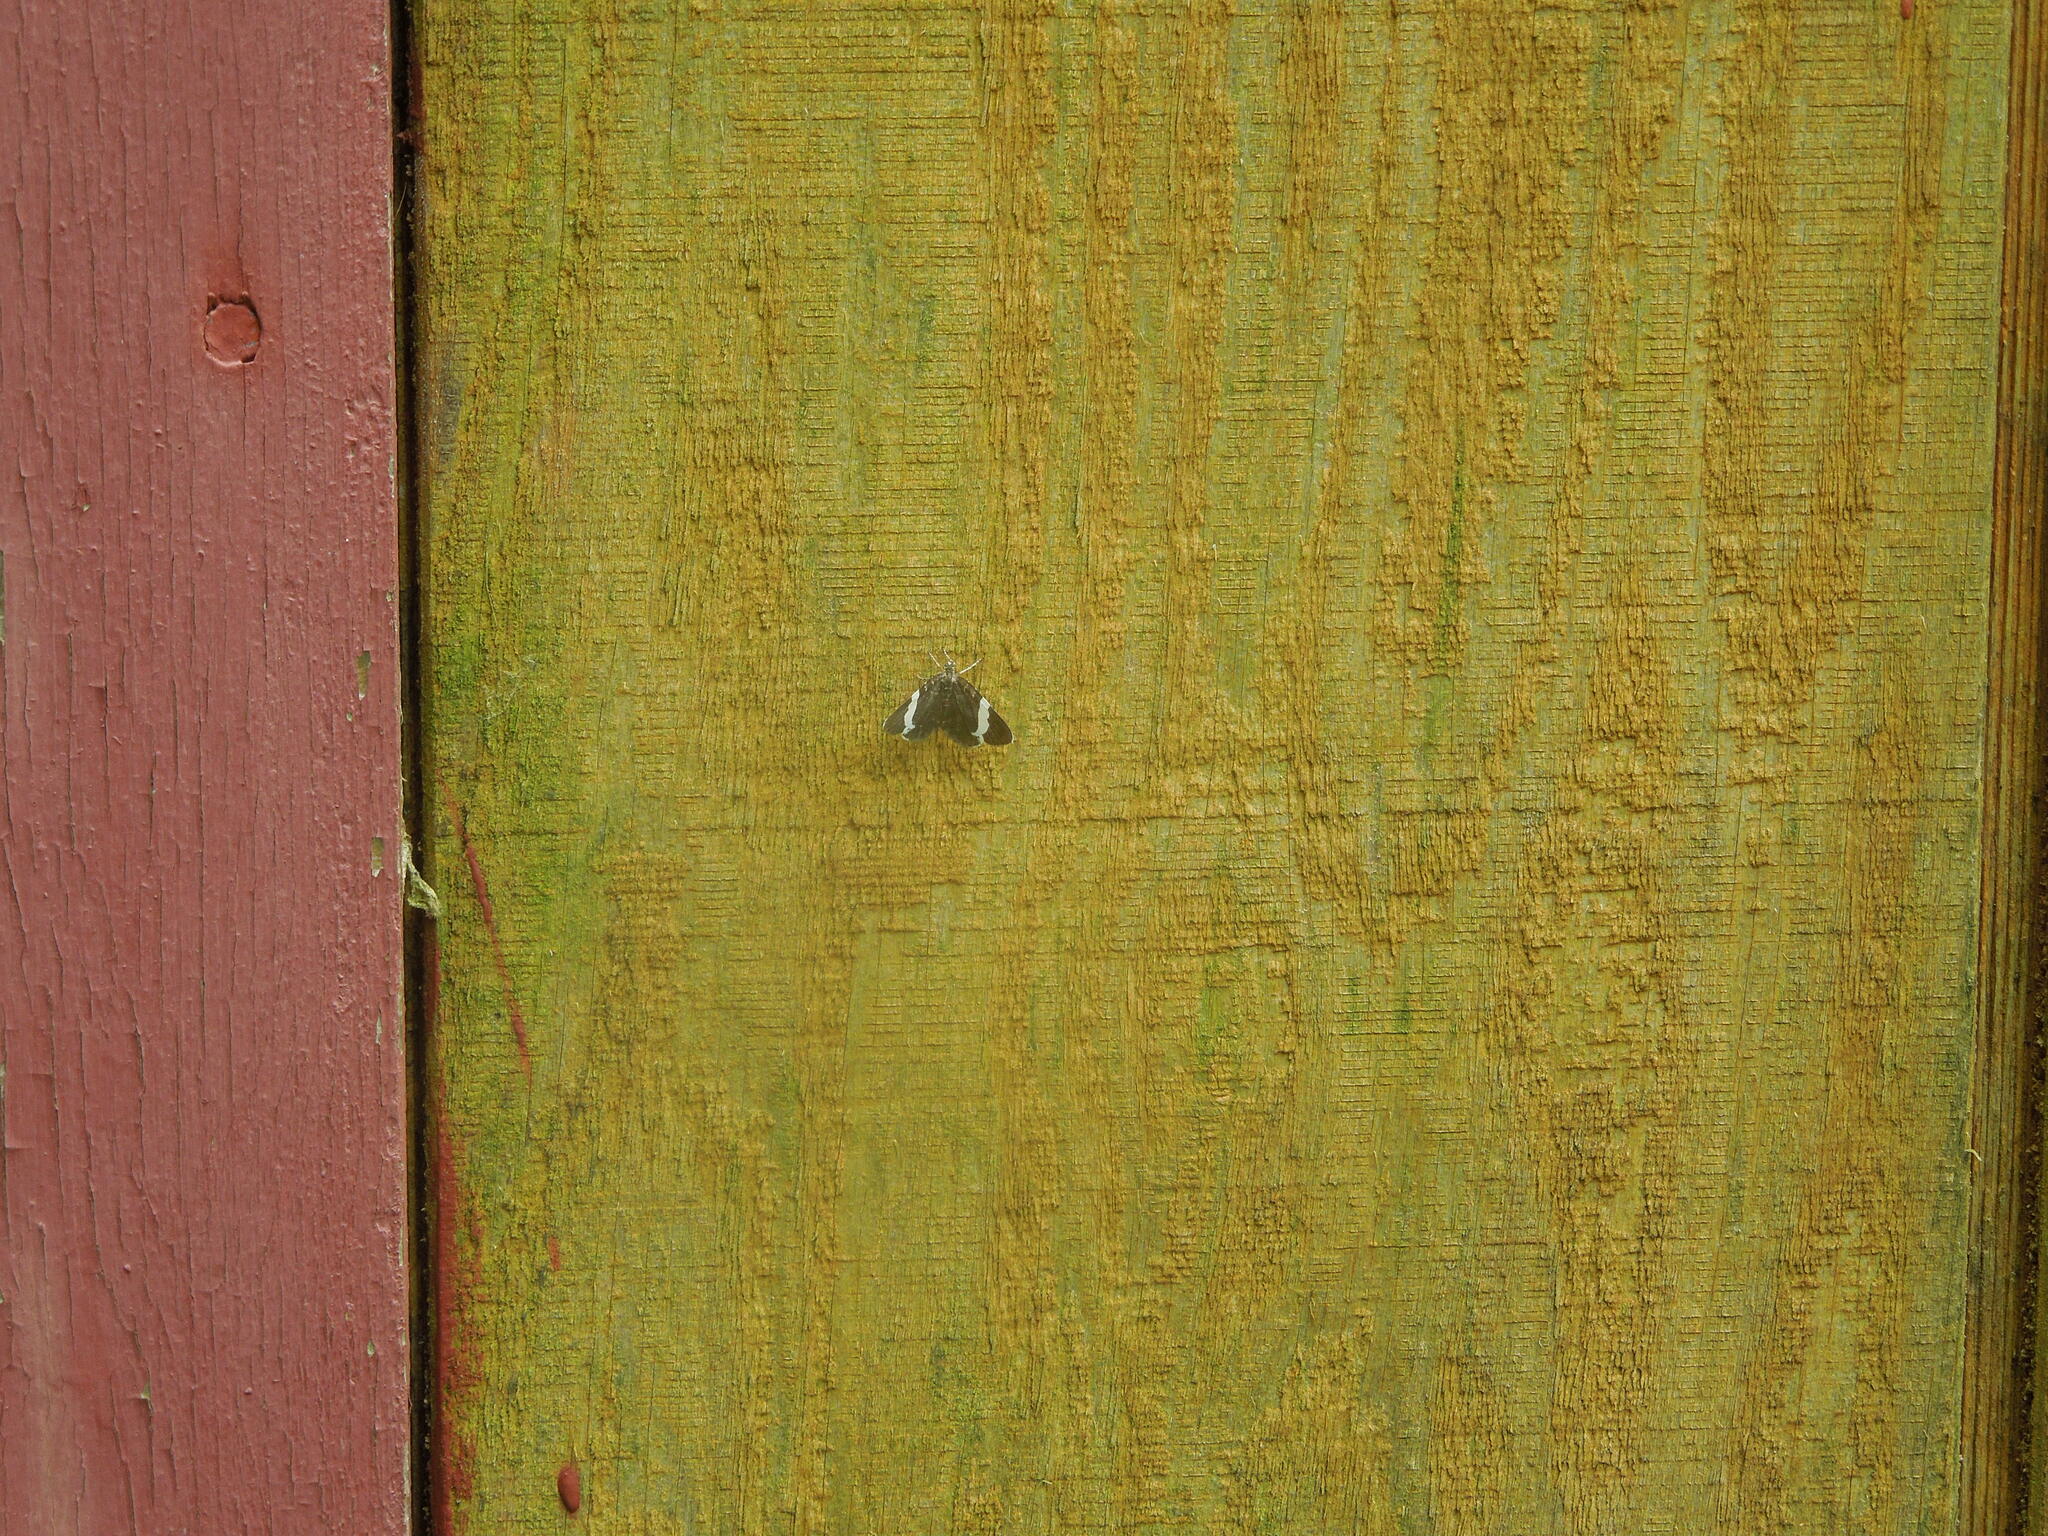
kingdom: Animalia
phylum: Arthropoda
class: Insecta
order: Lepidoptera
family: Geometridae
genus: Trichodezia
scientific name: Trichodezia albovittata
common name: White striped black
